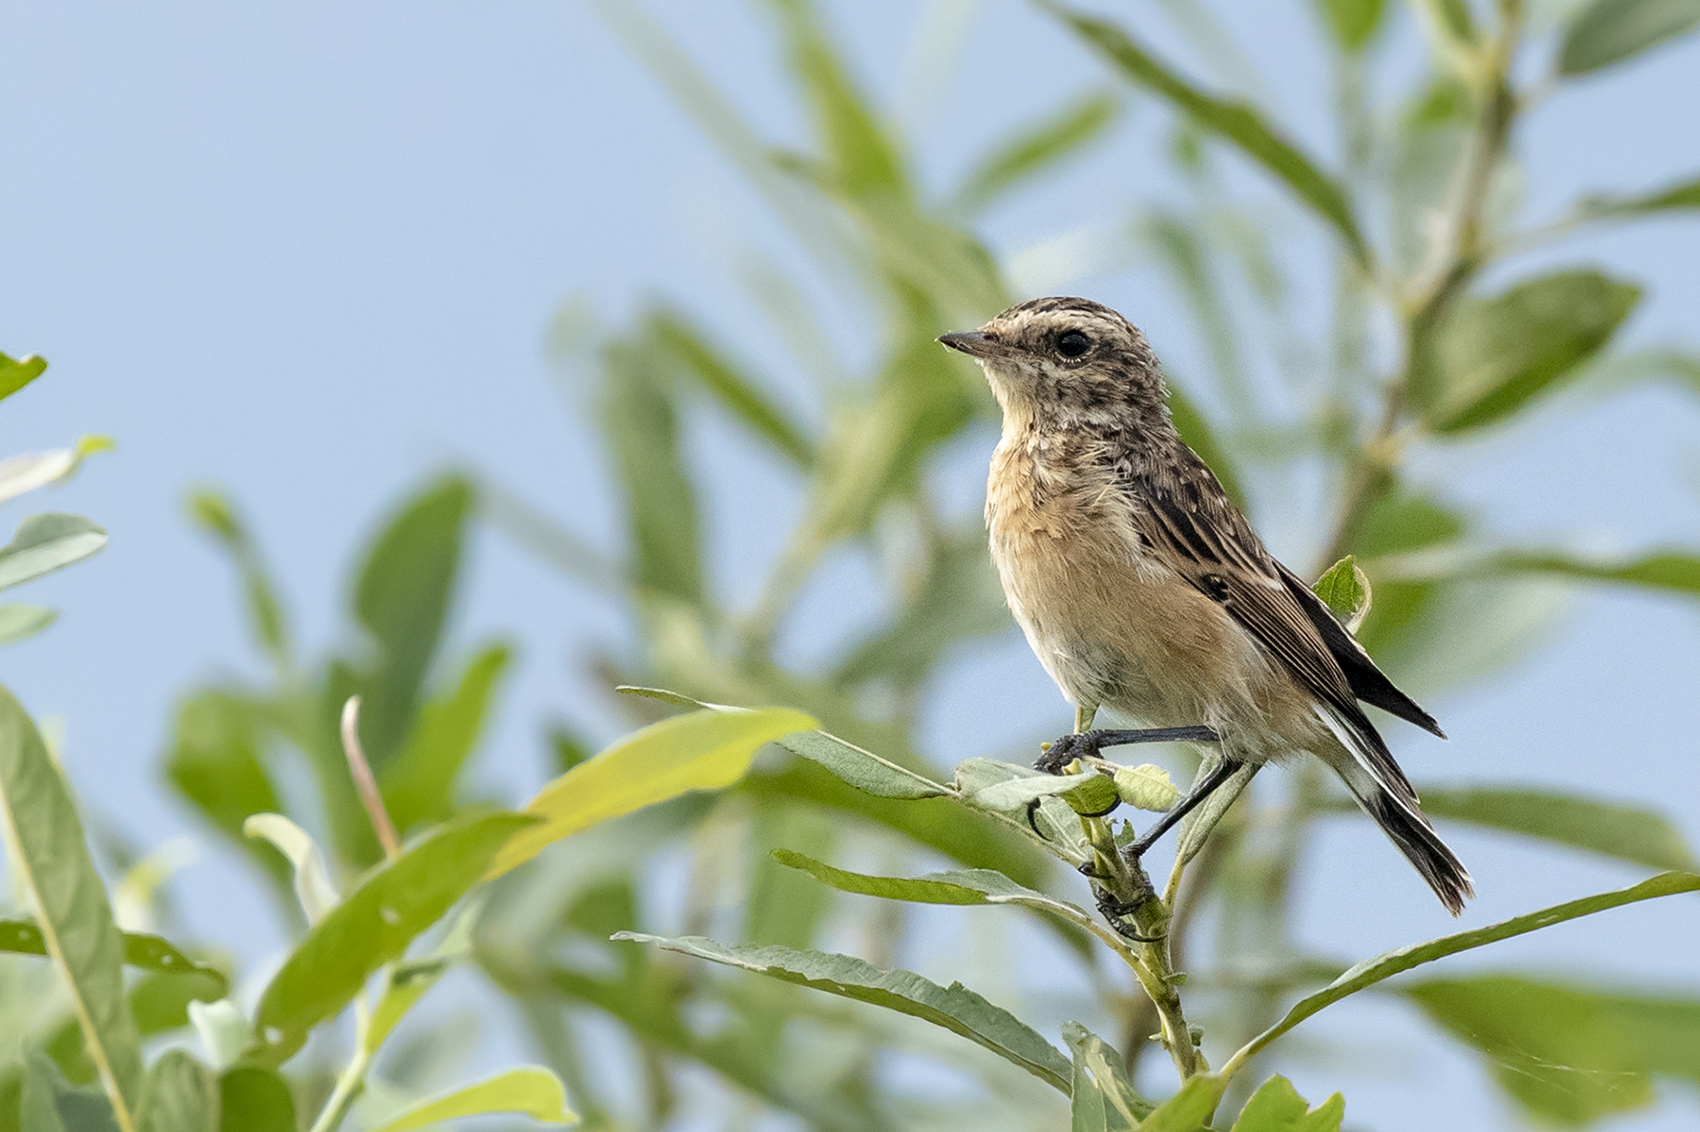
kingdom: Animalia
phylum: Chordata
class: Aves
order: Passeriformes
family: Muscicapidae
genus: Saxicola
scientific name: Saxicola rubetra
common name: Whinchat
